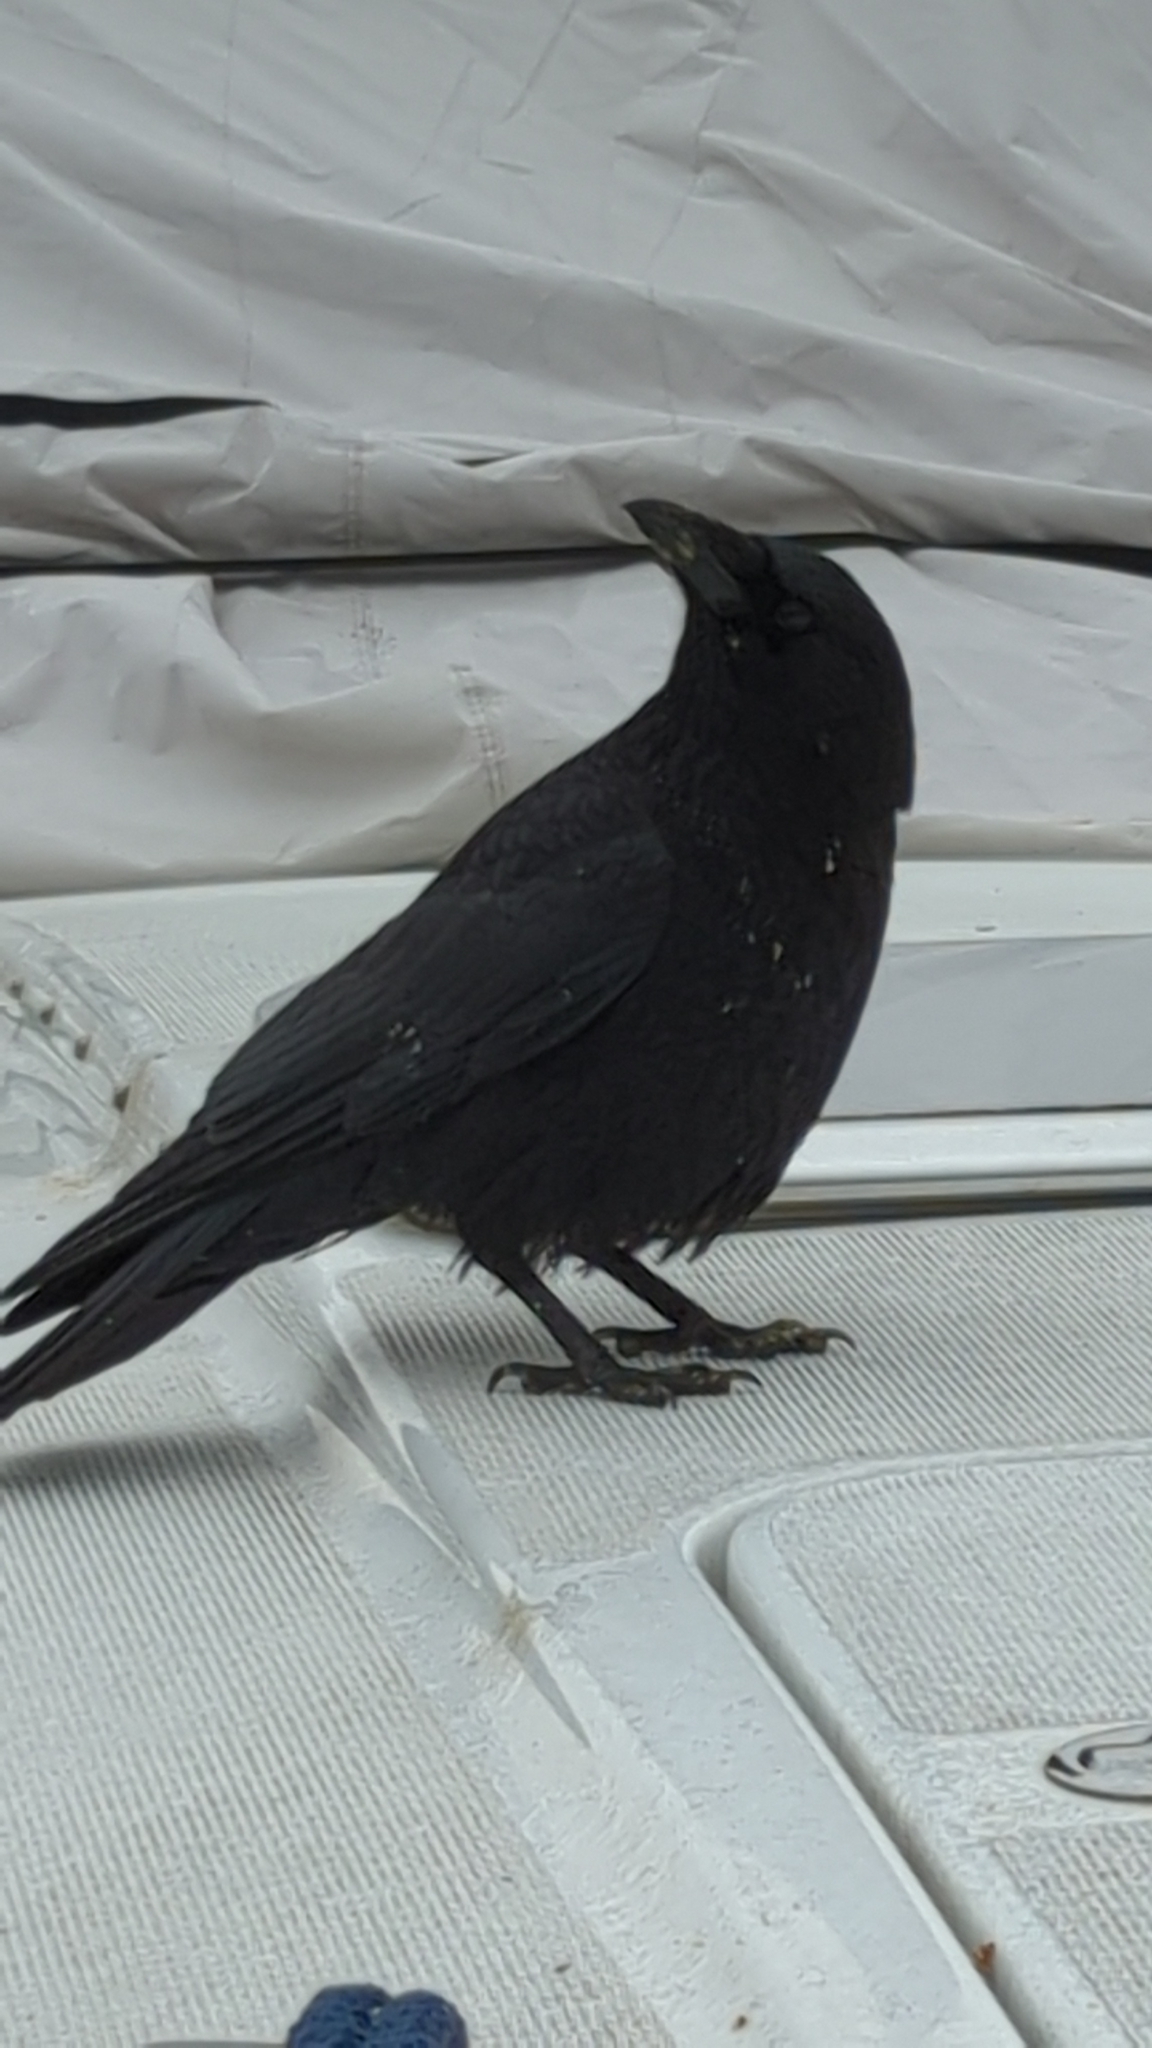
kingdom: Animalia
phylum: Chordata
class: Aves
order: Passeriformes
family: Corvidae
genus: Corvus
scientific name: Corvus brachyrhynchos
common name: American crow
